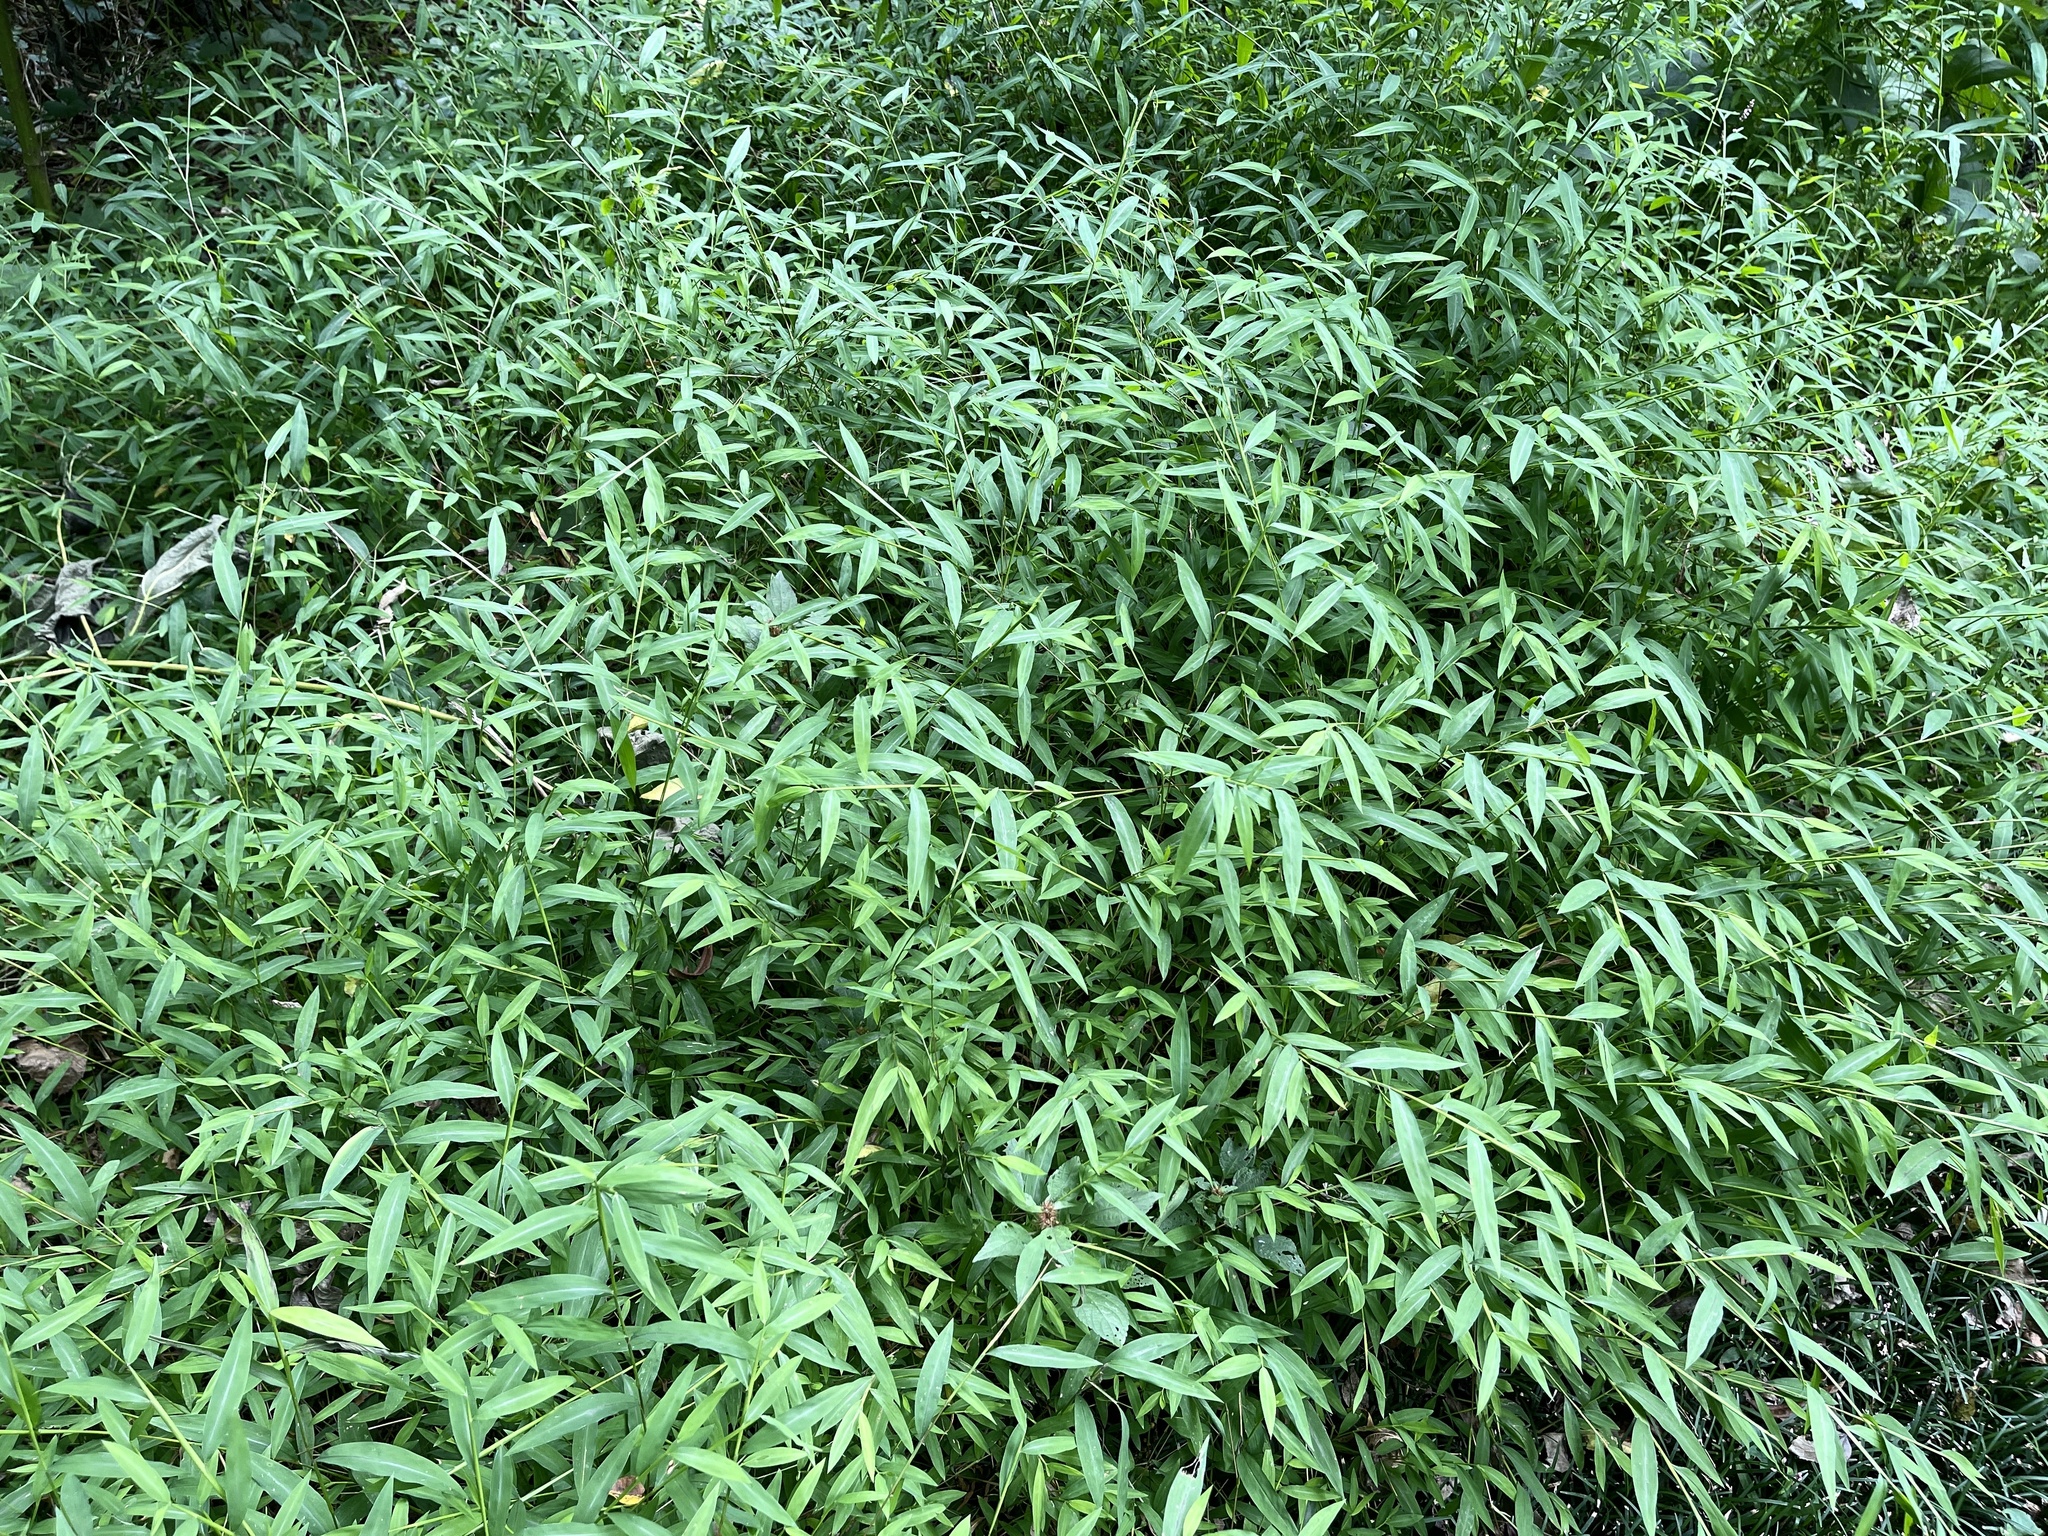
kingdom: Plantae
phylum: Tracheophyta
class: Liliopsida
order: Poales
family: Poaceae
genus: Microstegium
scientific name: Microstegium vimineum
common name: Japanese stiltgrass
